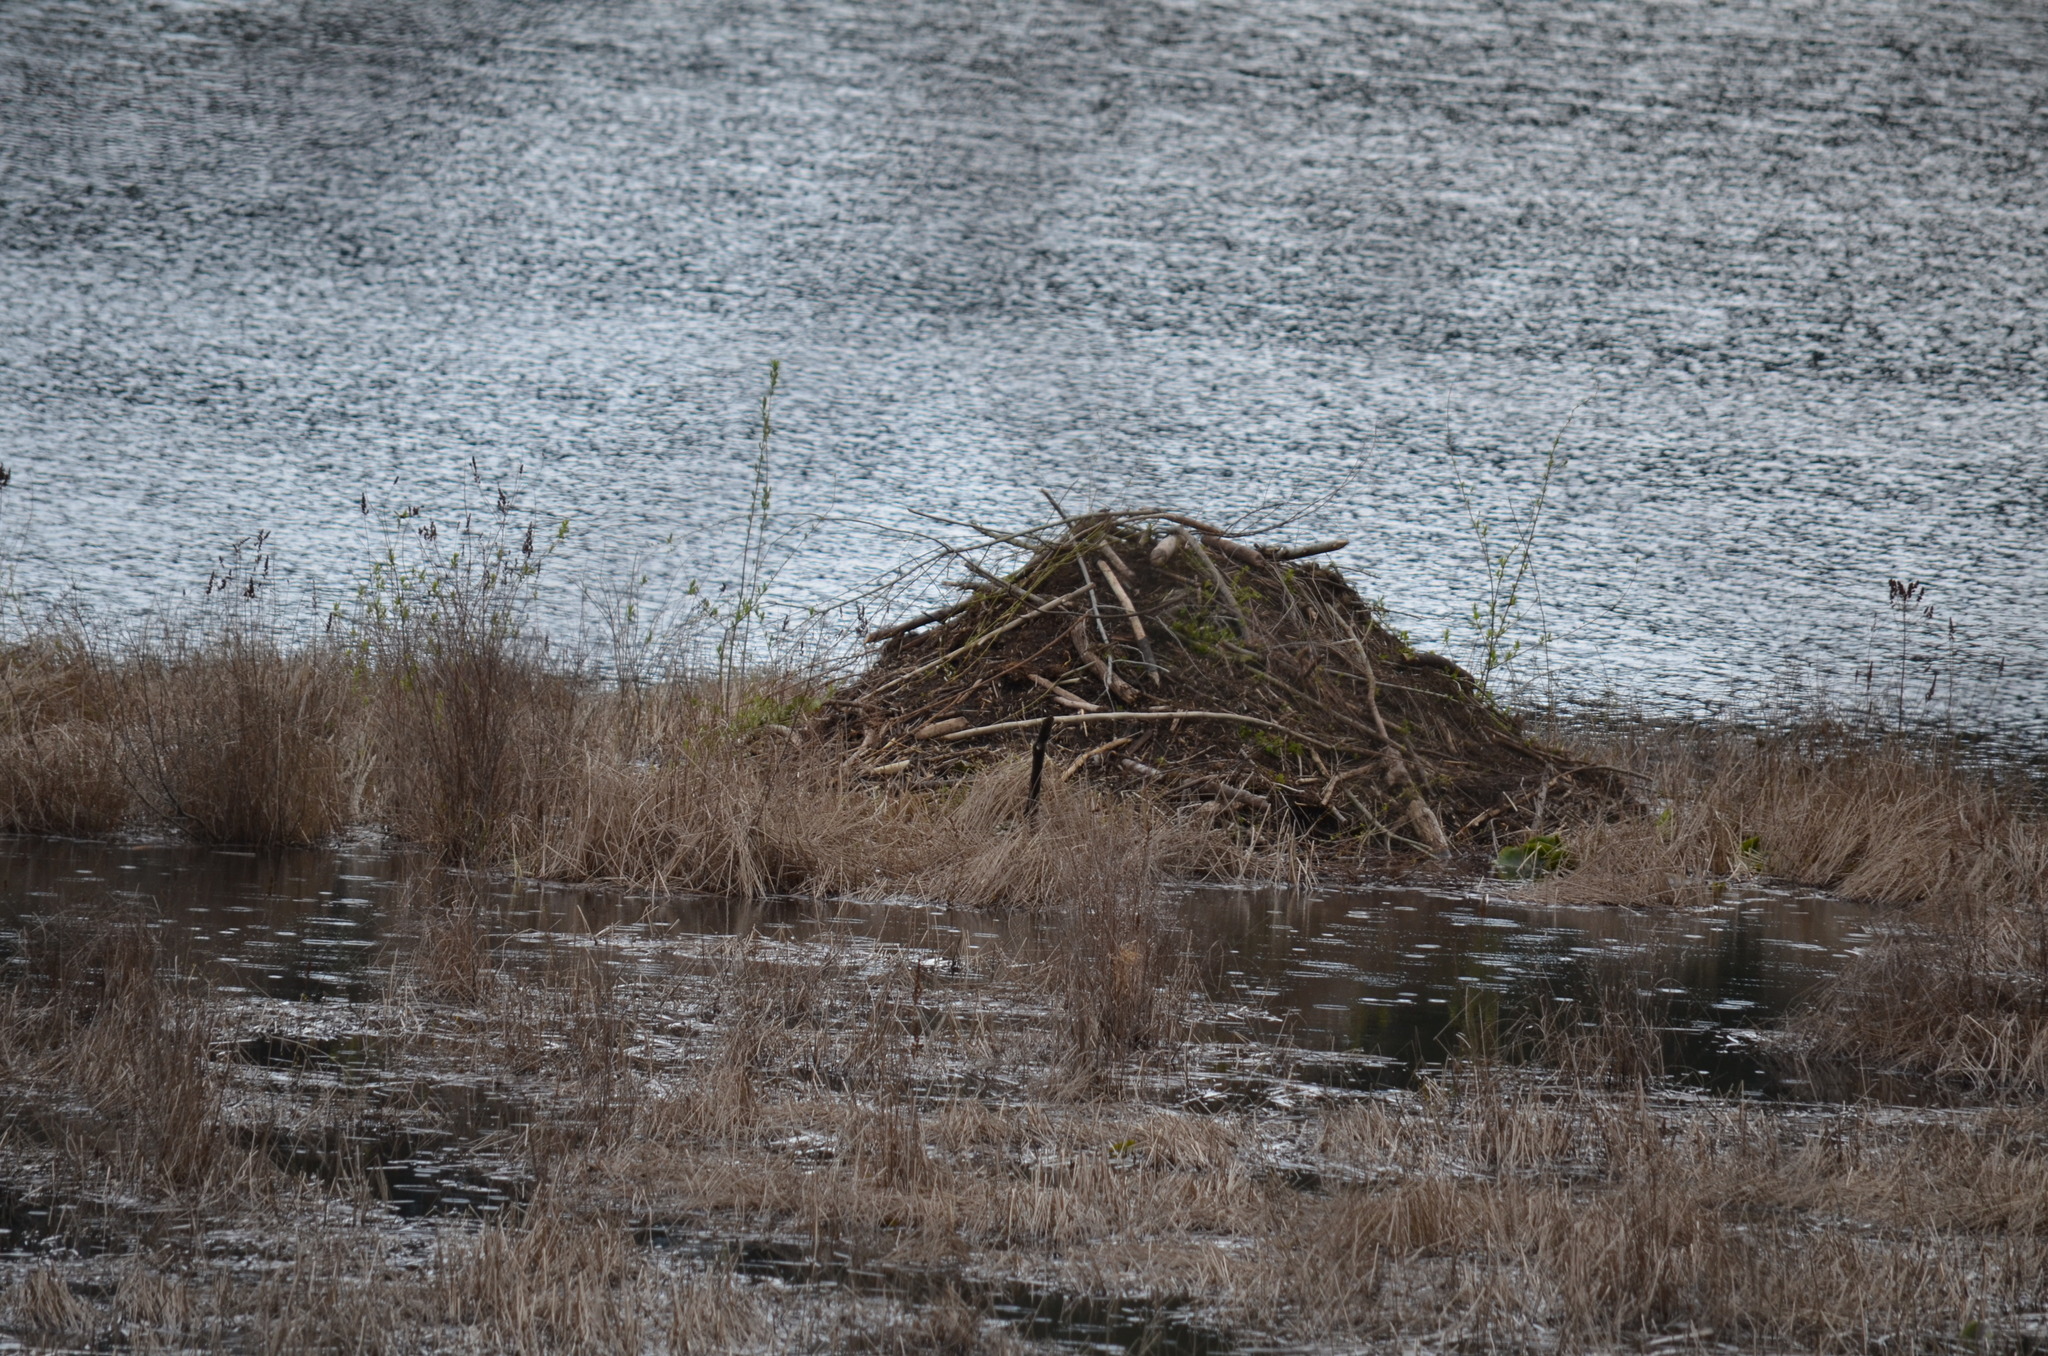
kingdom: Animalia
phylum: Chordata
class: Mammalia
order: Rodentia
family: Castoridae
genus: Castor
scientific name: Castor canadensis
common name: American beaver
